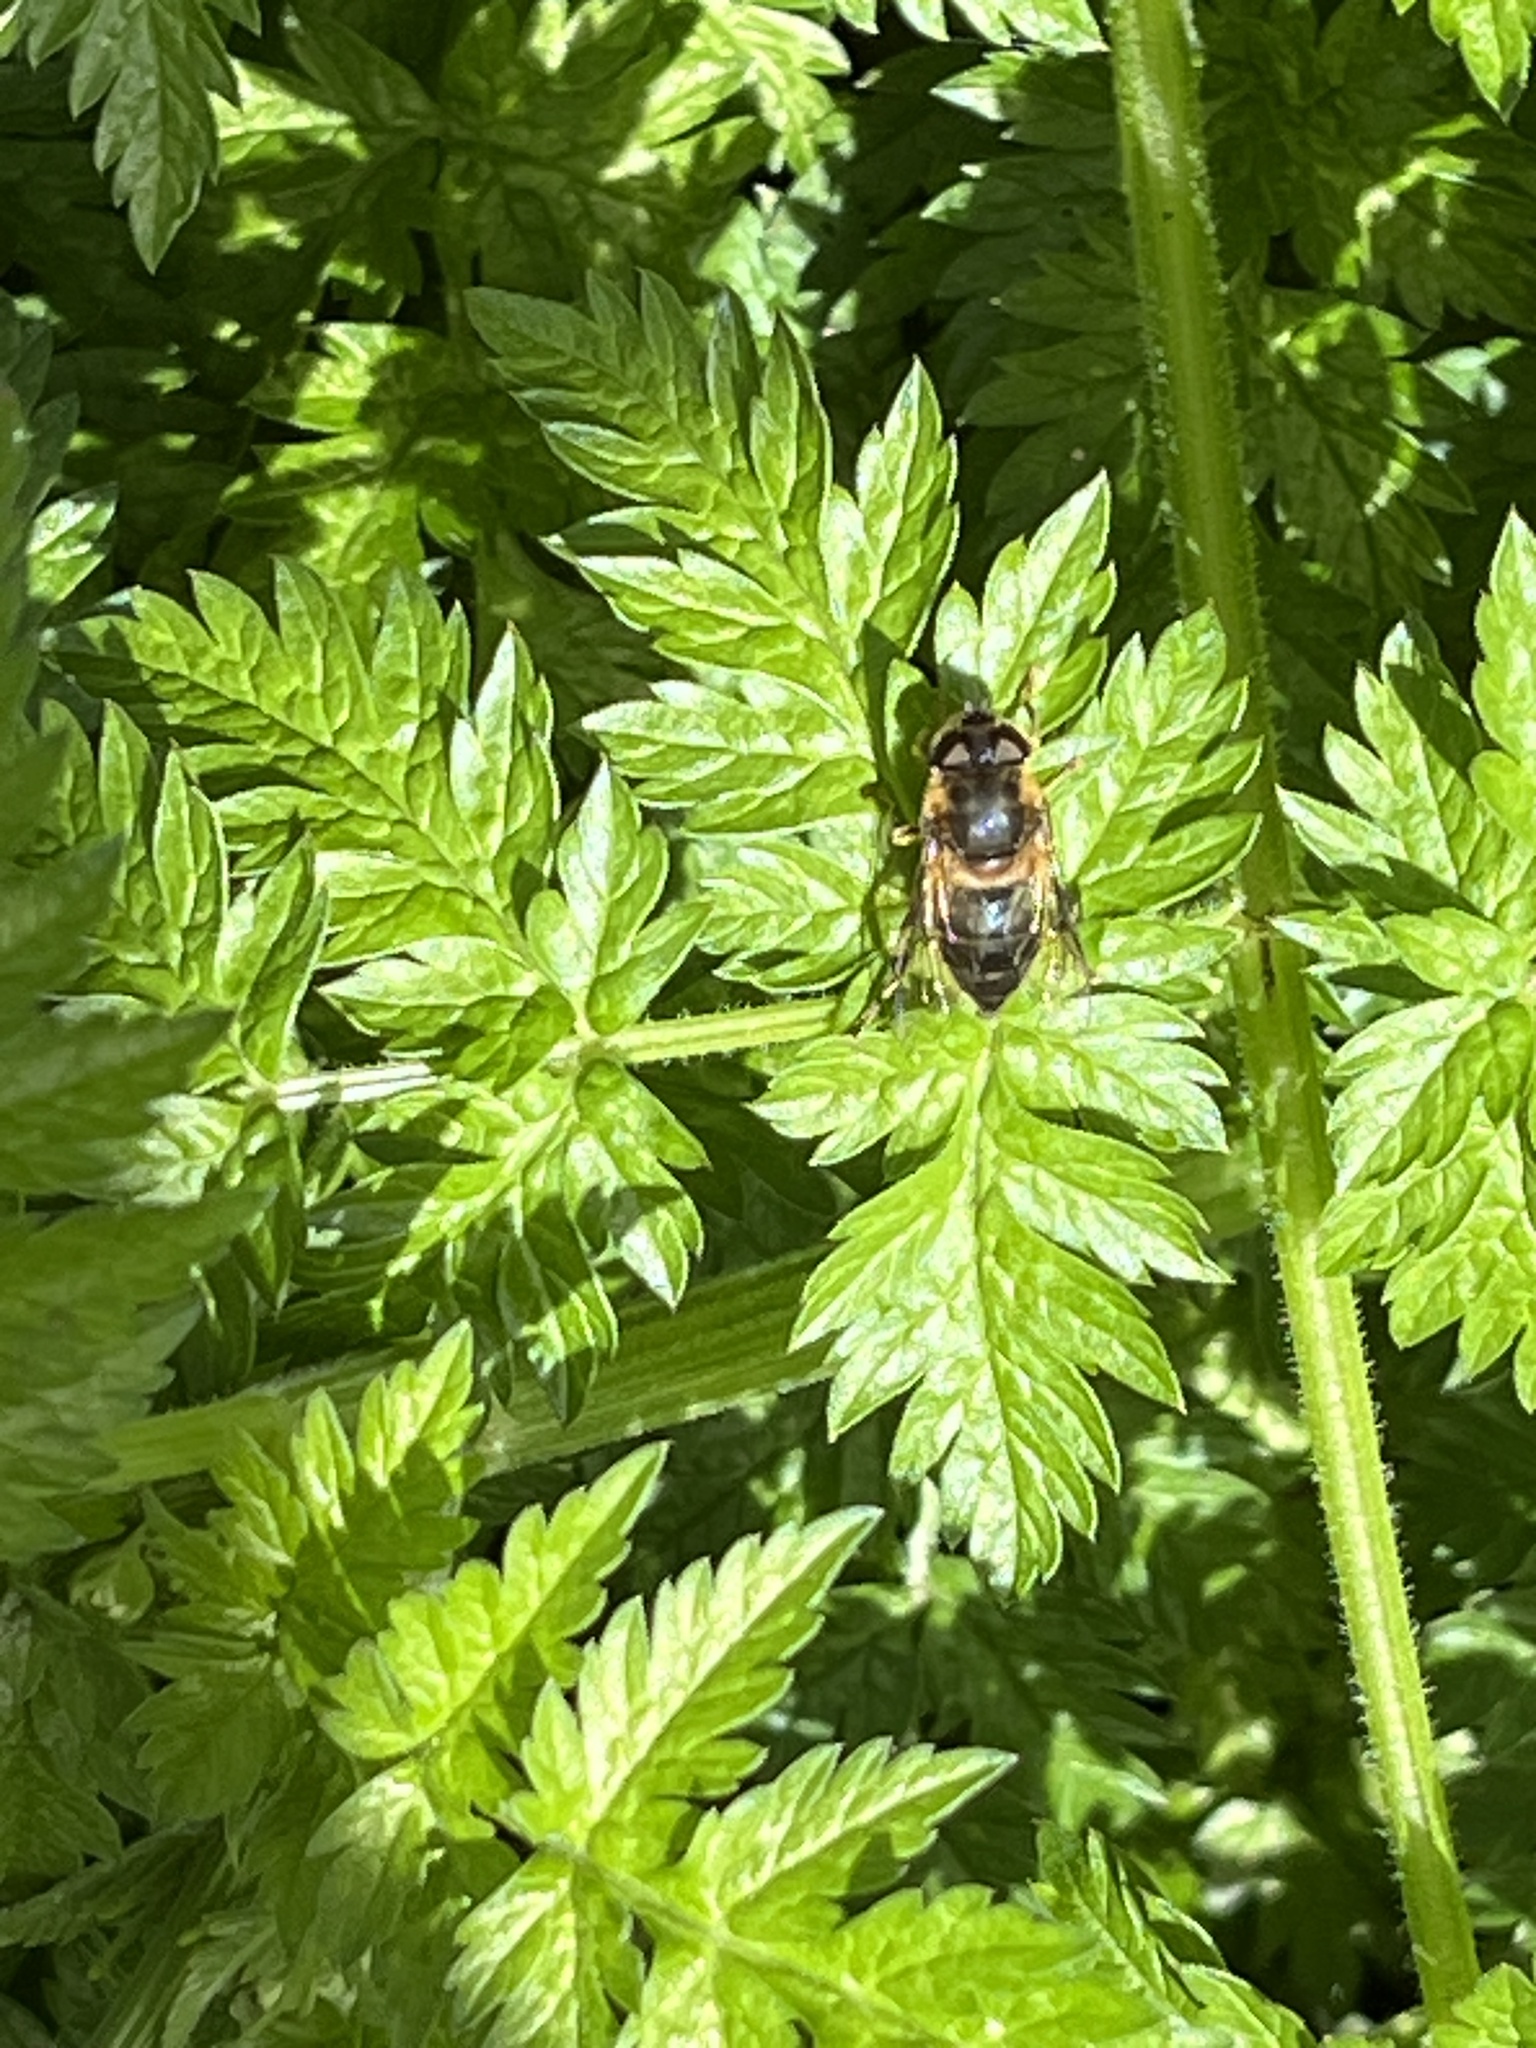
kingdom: Animalia
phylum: Arthropoda
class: Insecta
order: Diptera
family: Syrphidae
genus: Eristalis
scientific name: Eristalis pertinax
